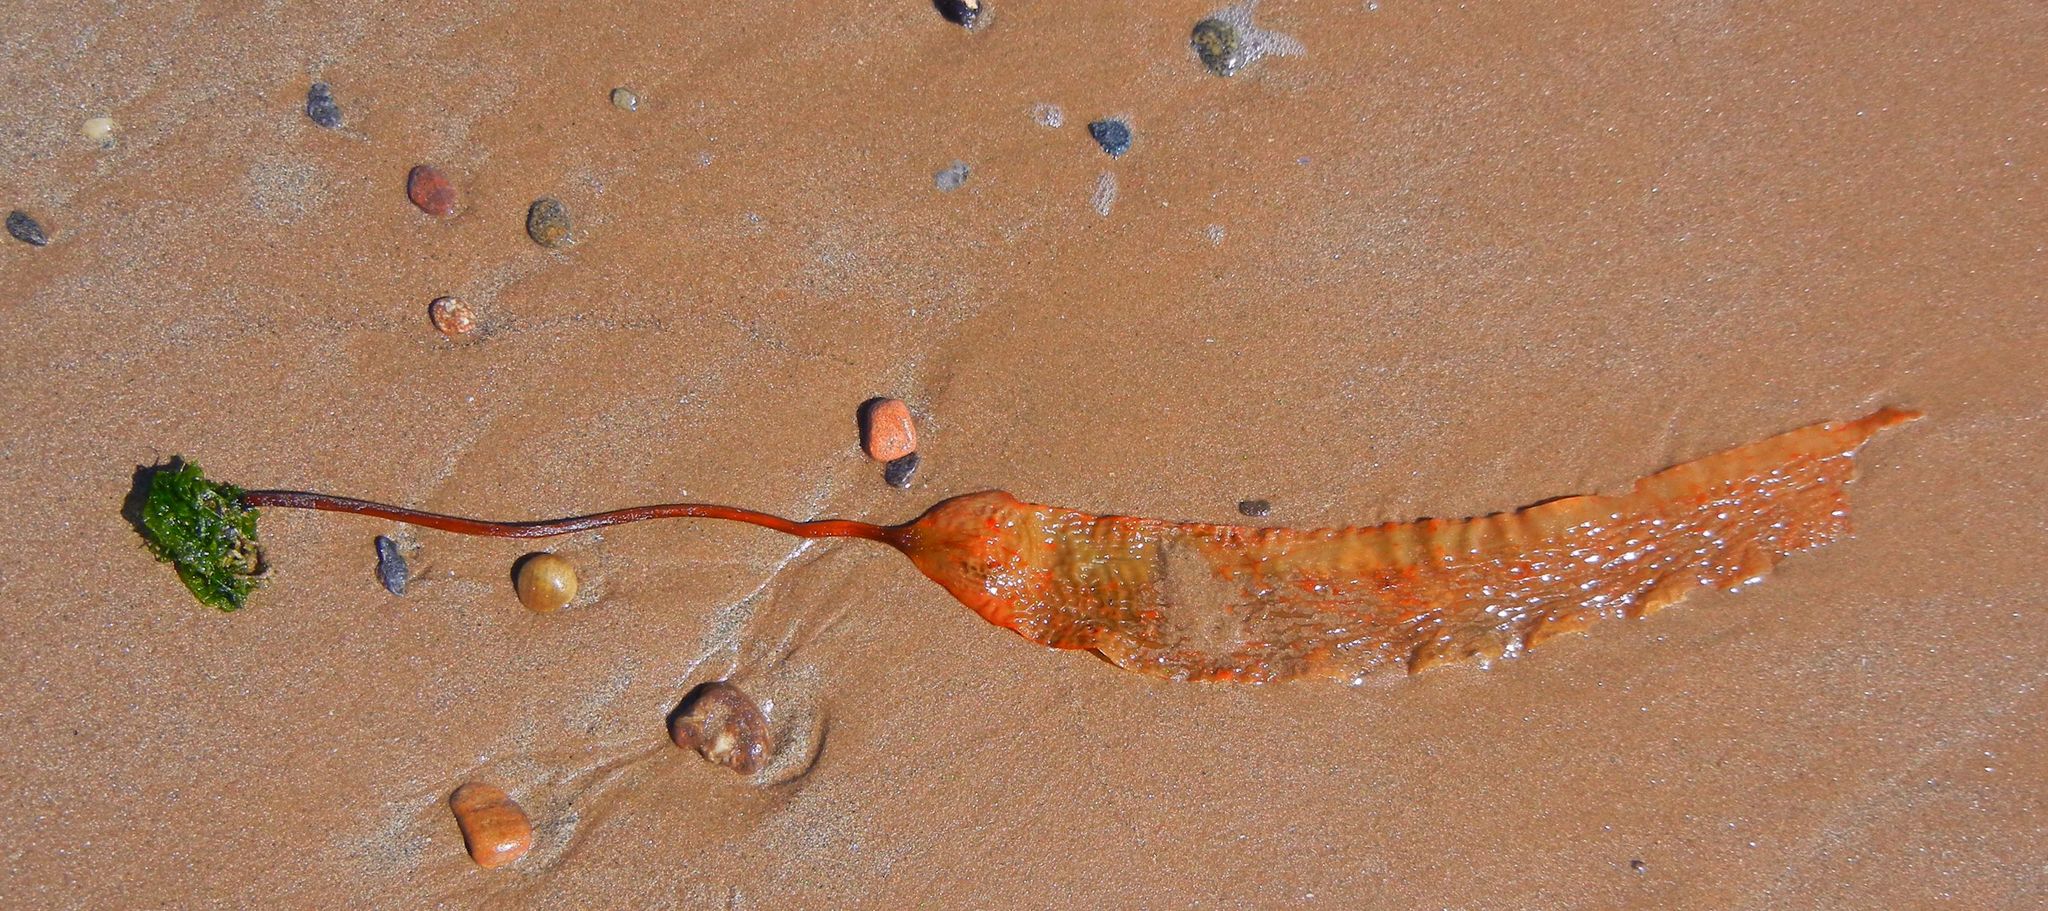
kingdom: Chromista
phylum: Ochrophyta
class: Phaeophyceae
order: Laminariales
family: Laminariaceae
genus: Saccharina
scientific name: Saccharina latissima
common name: Poor man's weather glass
